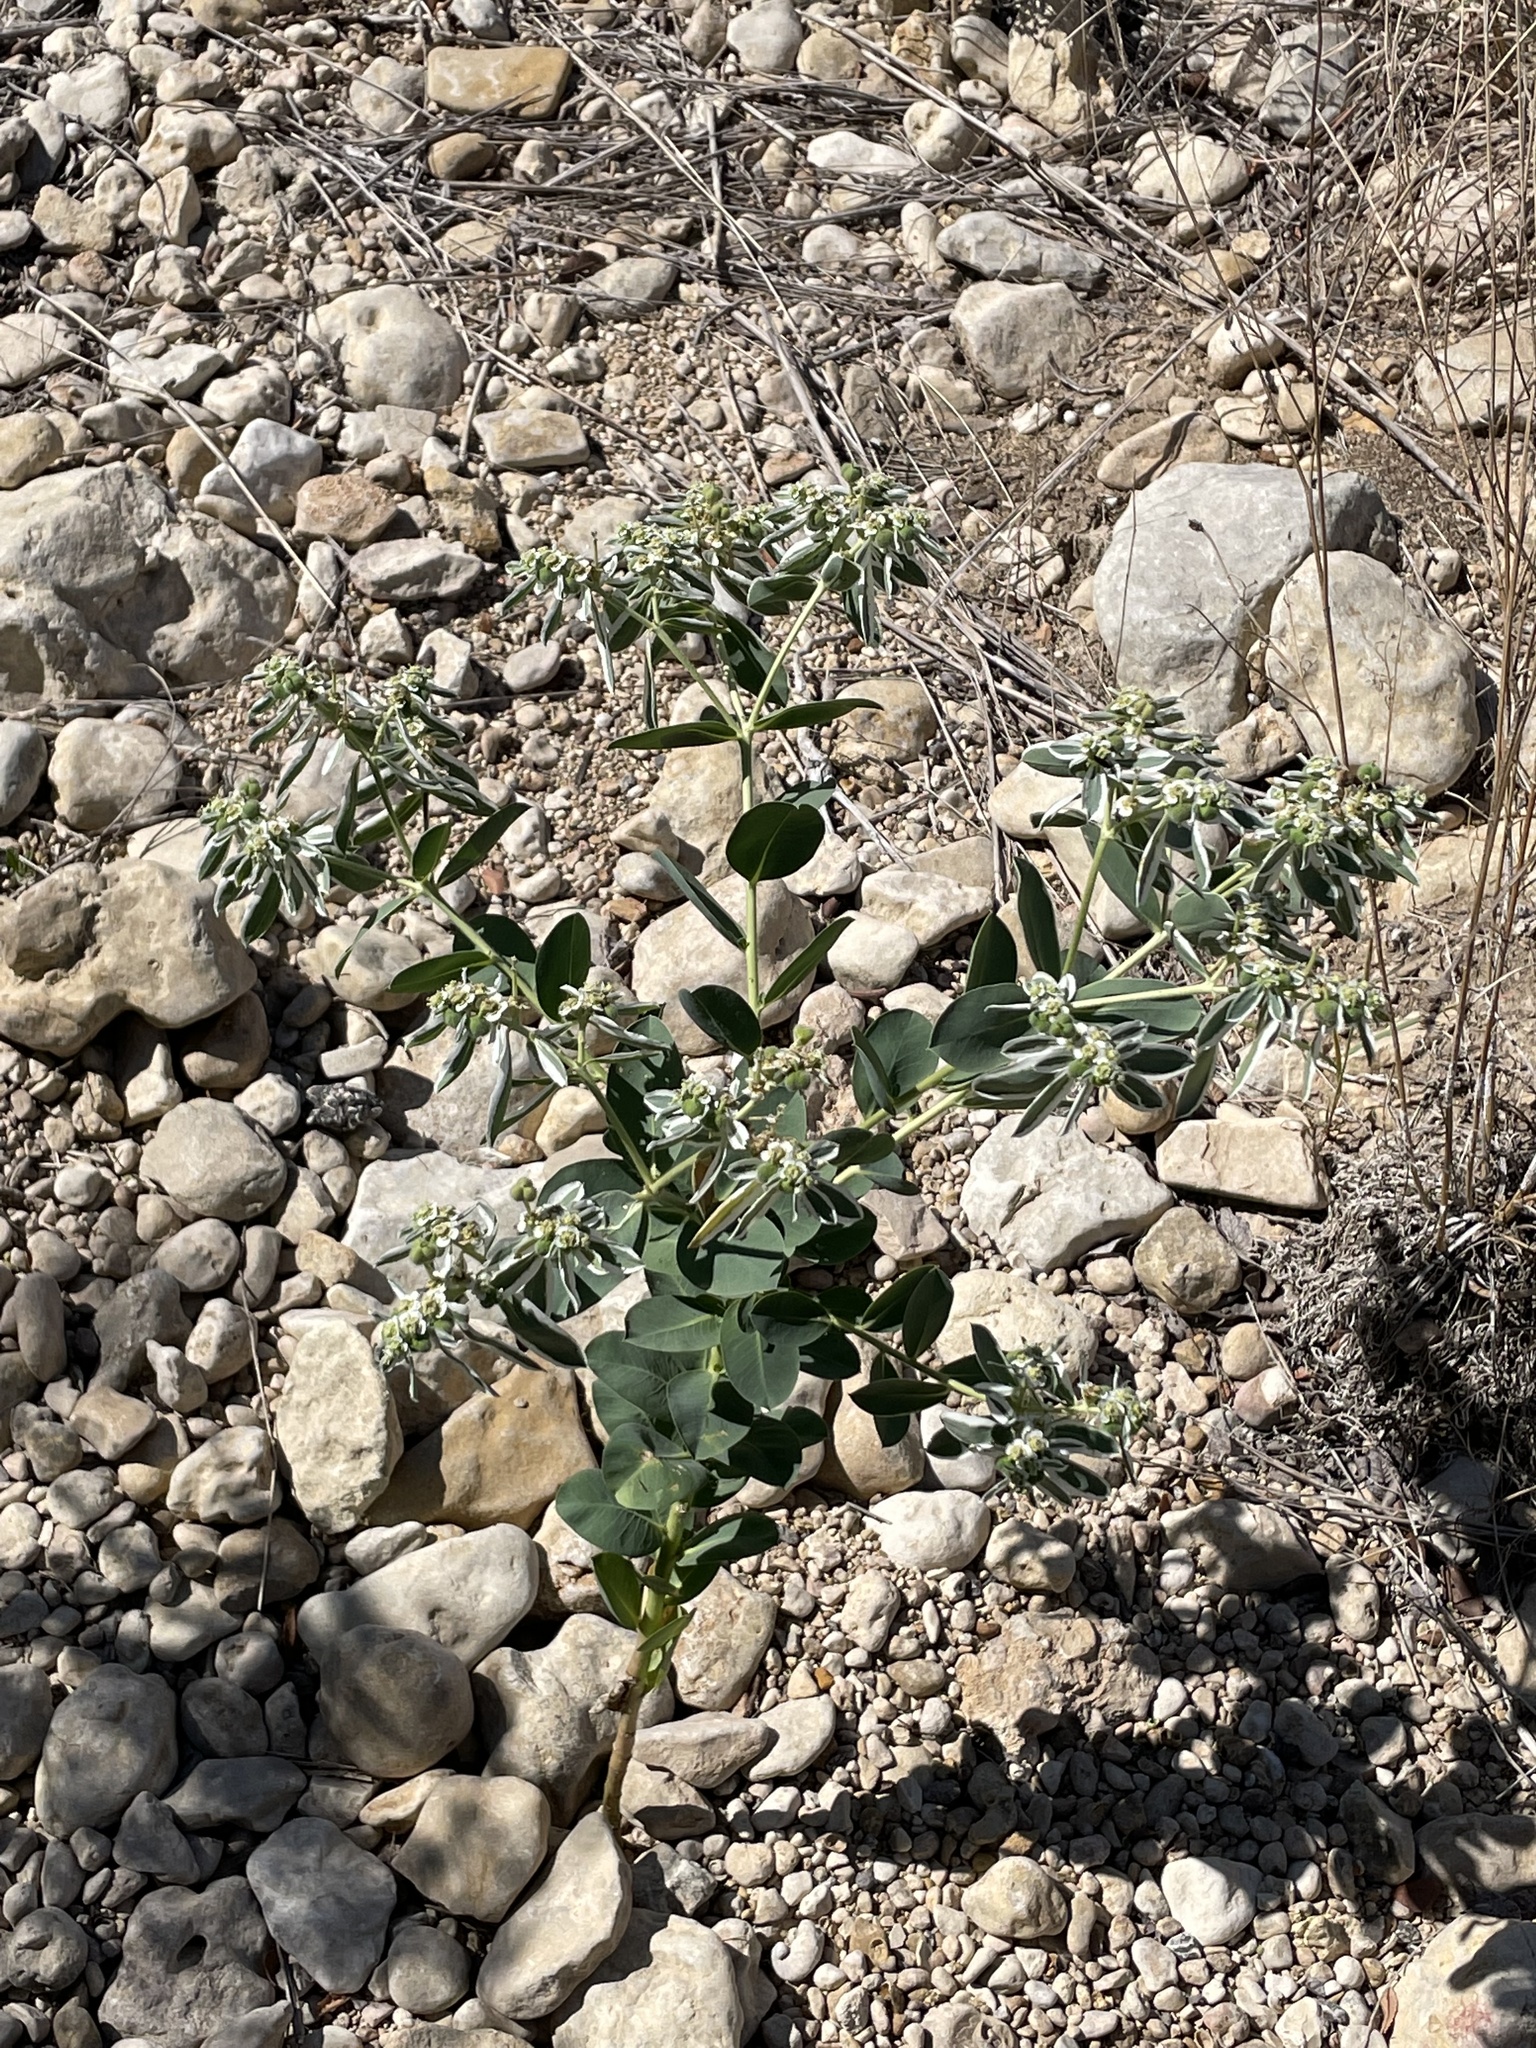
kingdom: Plantae
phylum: Tracheophyta
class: Magnoliopsida
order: Malpighiales
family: Euphorbiaceae
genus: Euphorbia
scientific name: Euphorbia marginata
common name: Ghostweed
